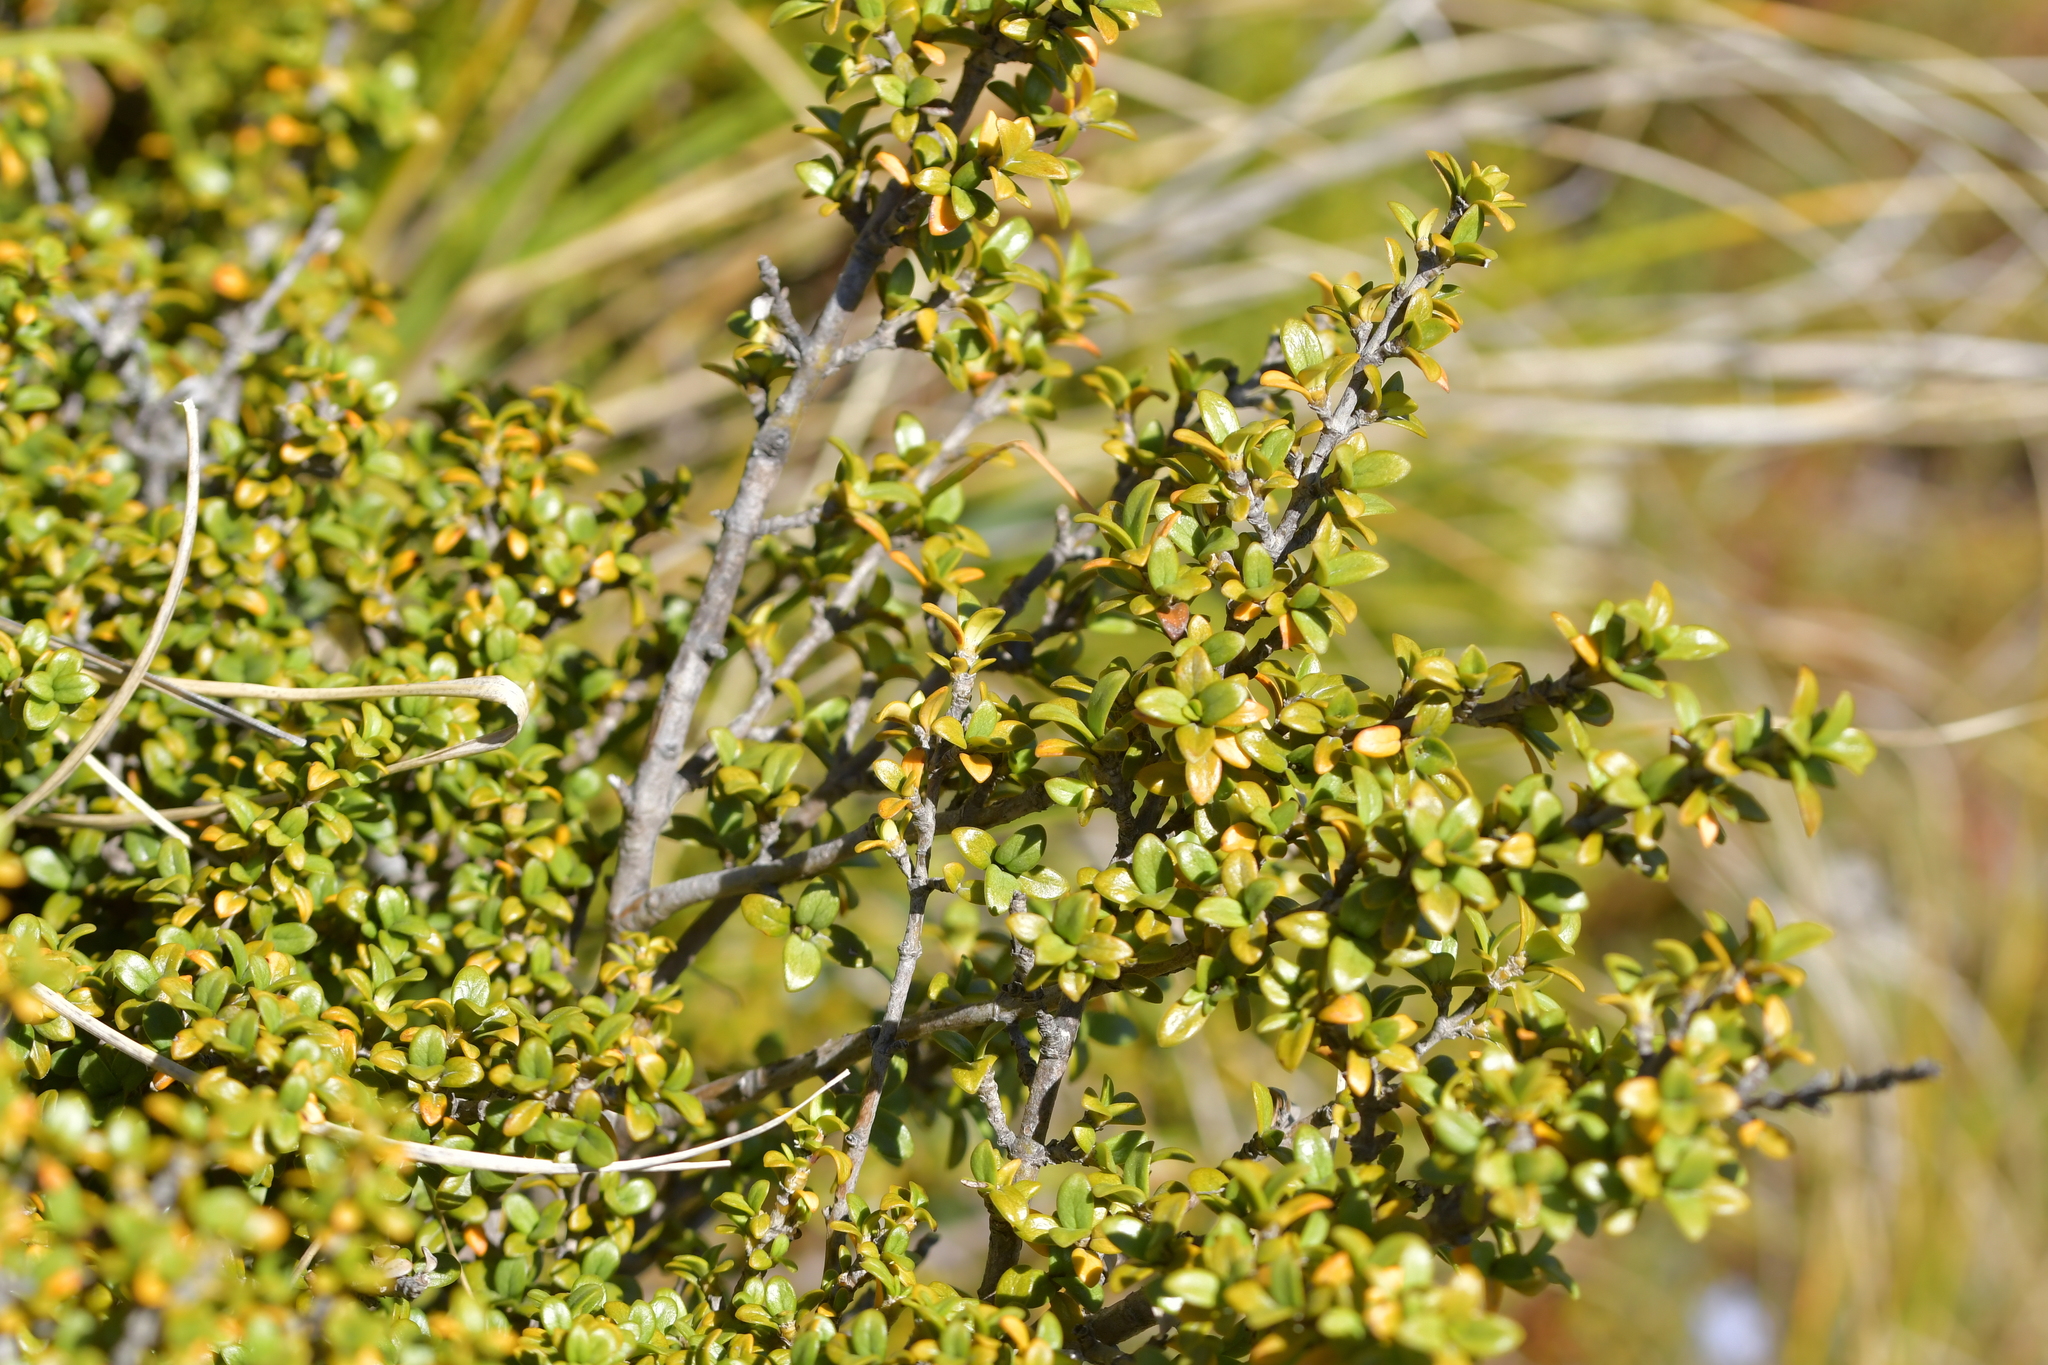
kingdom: Plantae
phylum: Tracheophyta
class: Magnoliopsida
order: Gentianales
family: Rubiaceae
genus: Coprosma
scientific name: Coprosma pseudocuneata
